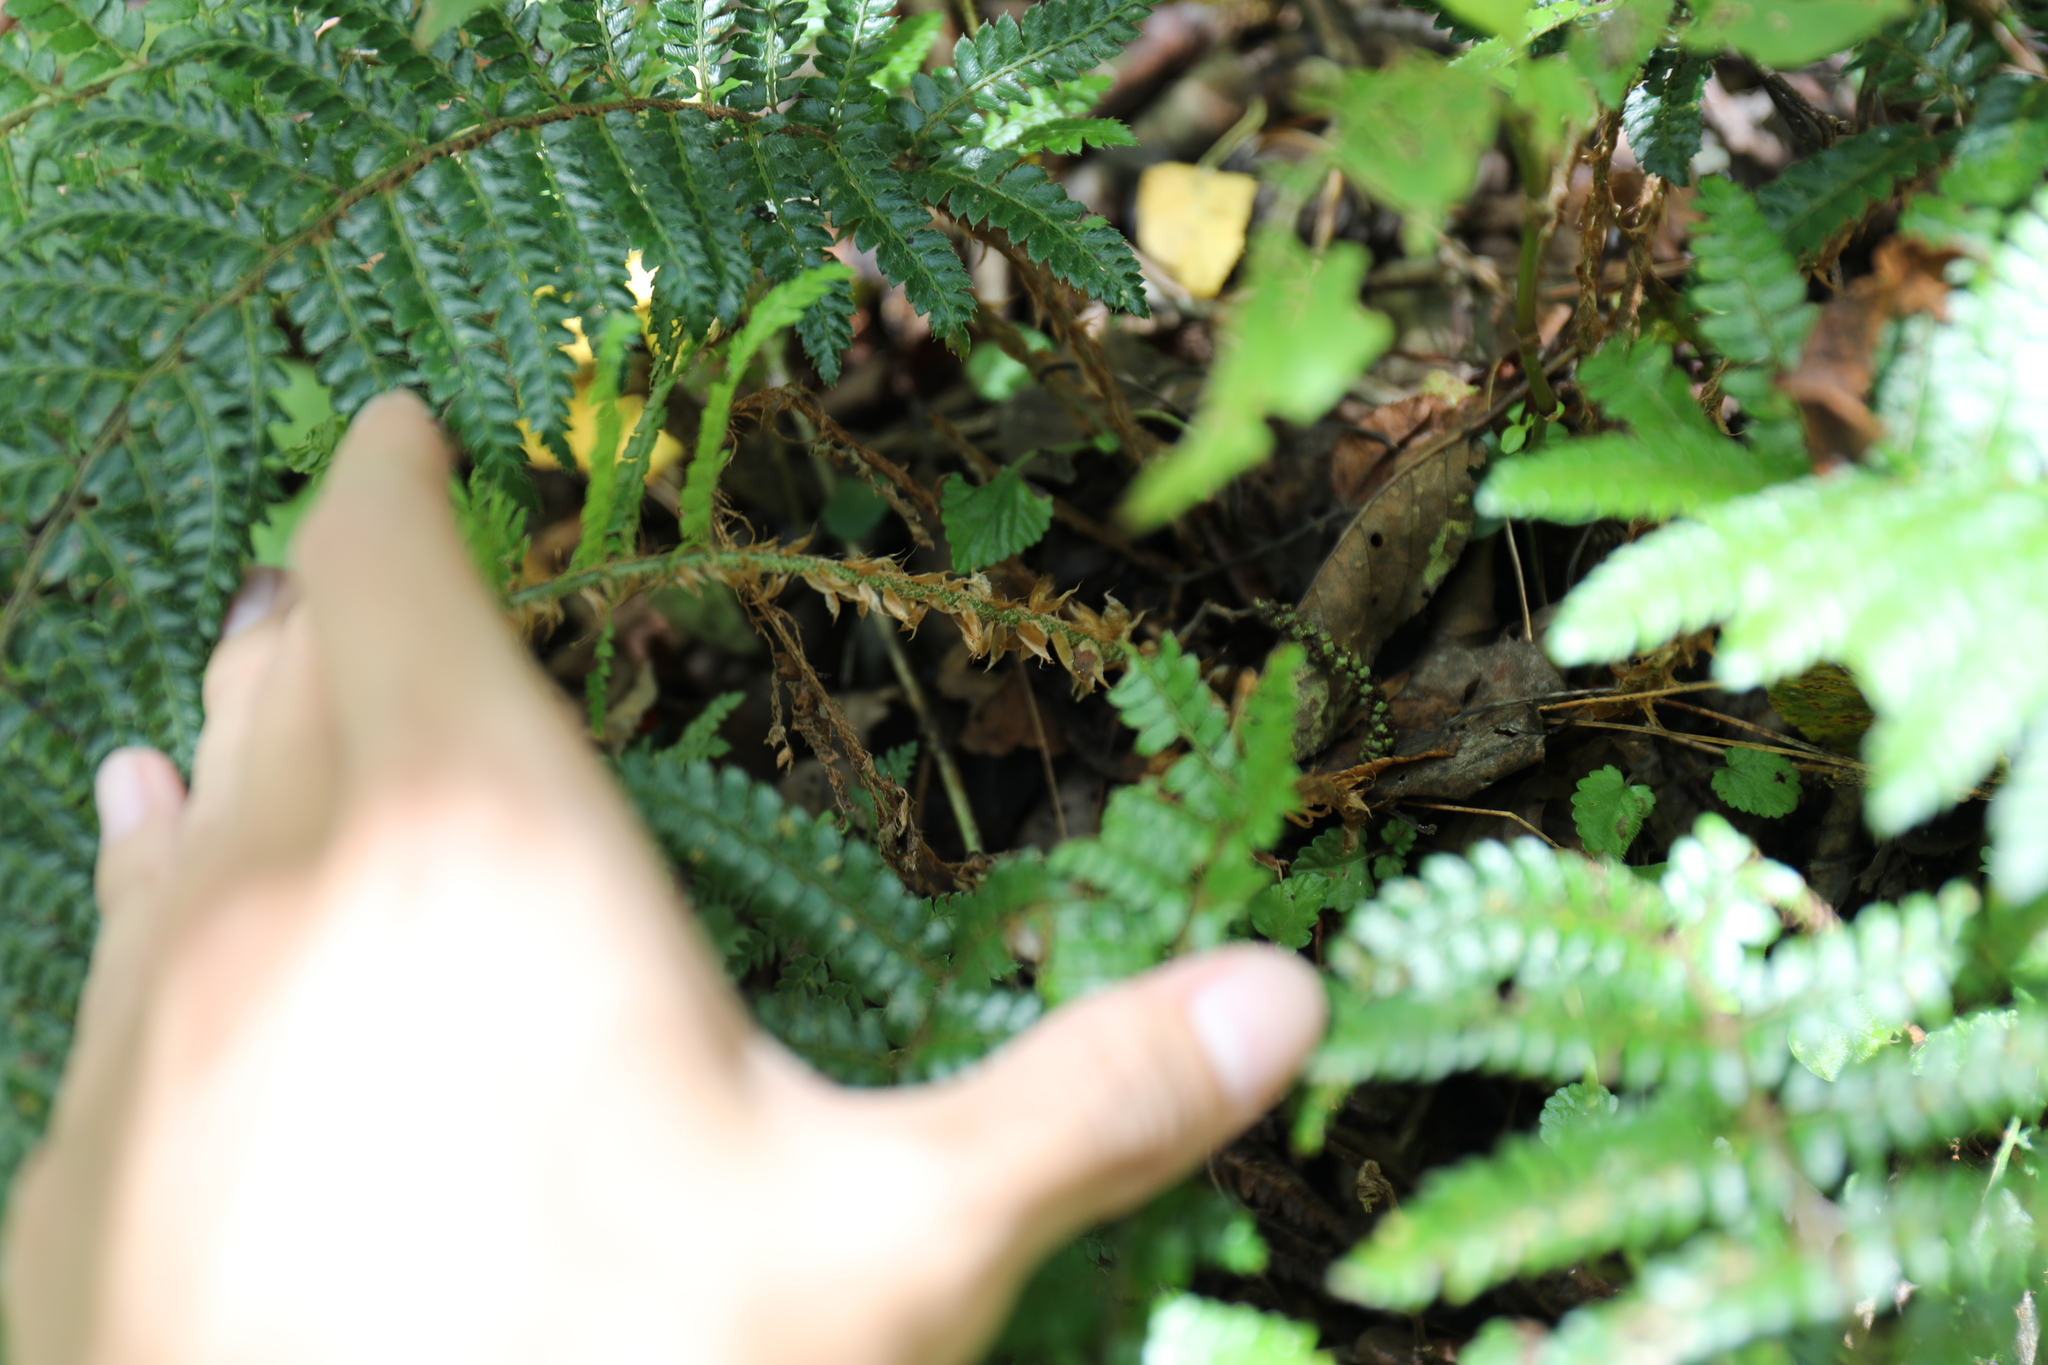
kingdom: Plantae
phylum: Tracheophyta
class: Polypodiopsida
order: Polypodiales
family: Dryopteridaceae
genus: Polystichum
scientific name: Polystichum parvipinnulum
